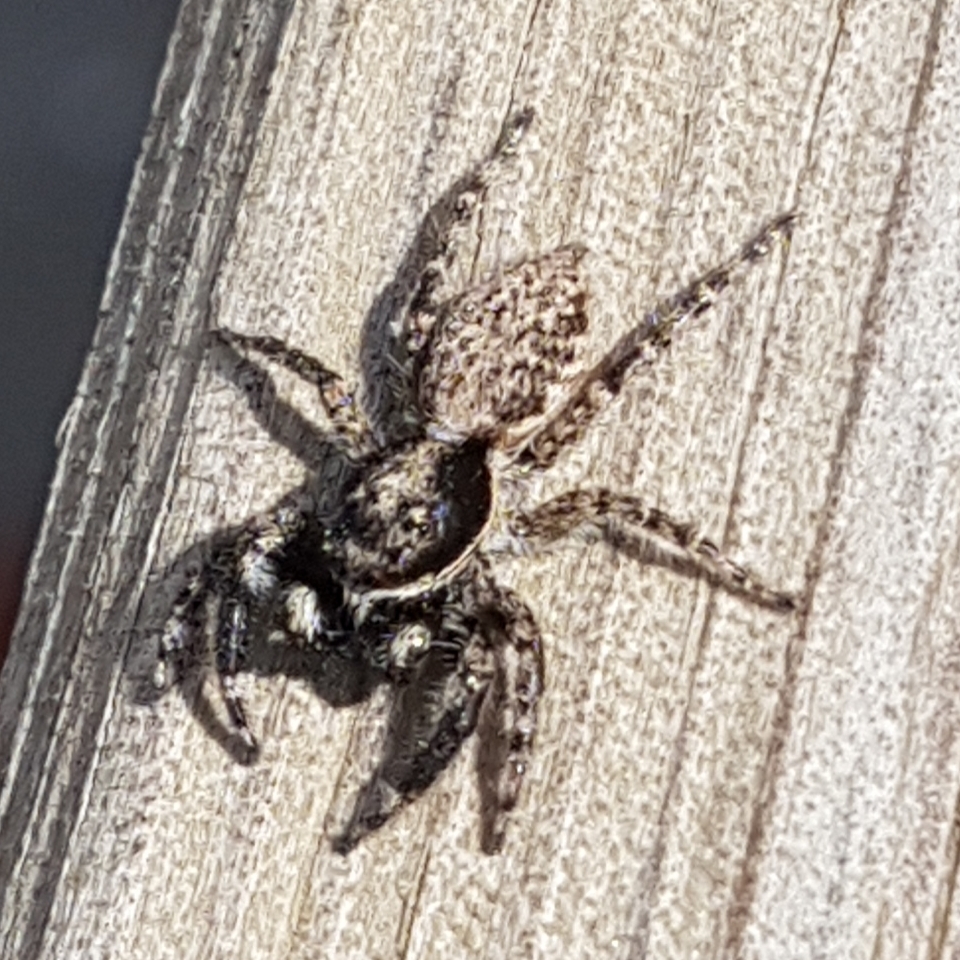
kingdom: Animalia
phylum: Arthropoda
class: Arachnida
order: Araneae
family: Salticidae
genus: Menemerus
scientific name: Menemerus taeniatus
